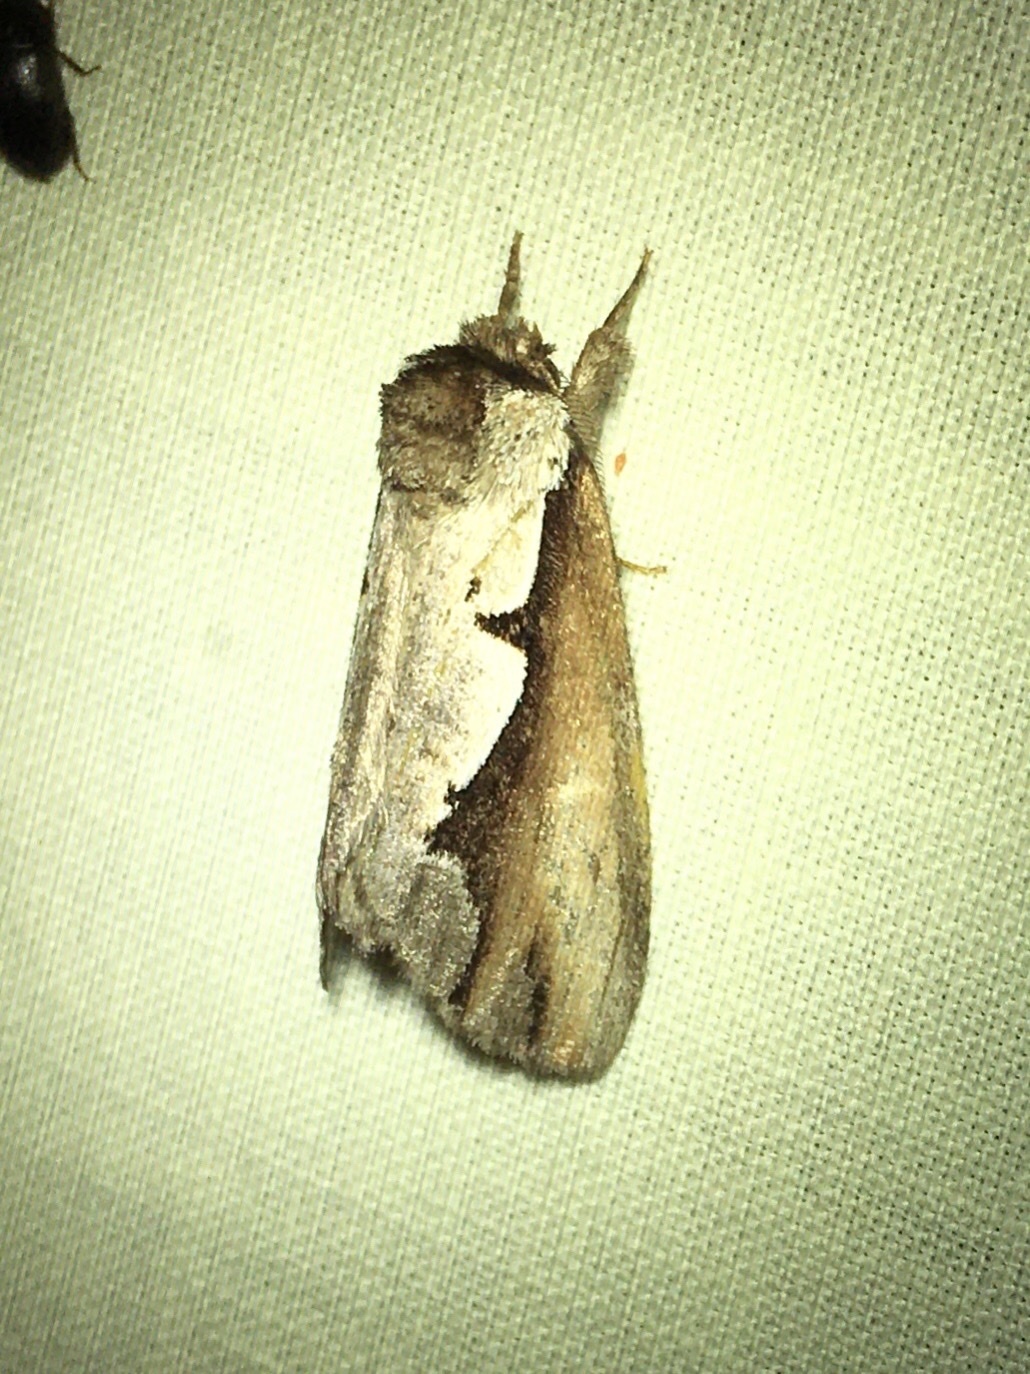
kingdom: Animalia
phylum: Arthropoda
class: Insecta
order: Lepidoptera
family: Notodontidae
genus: Nerice
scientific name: Nerice bidentata
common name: Double-toothed prominent
